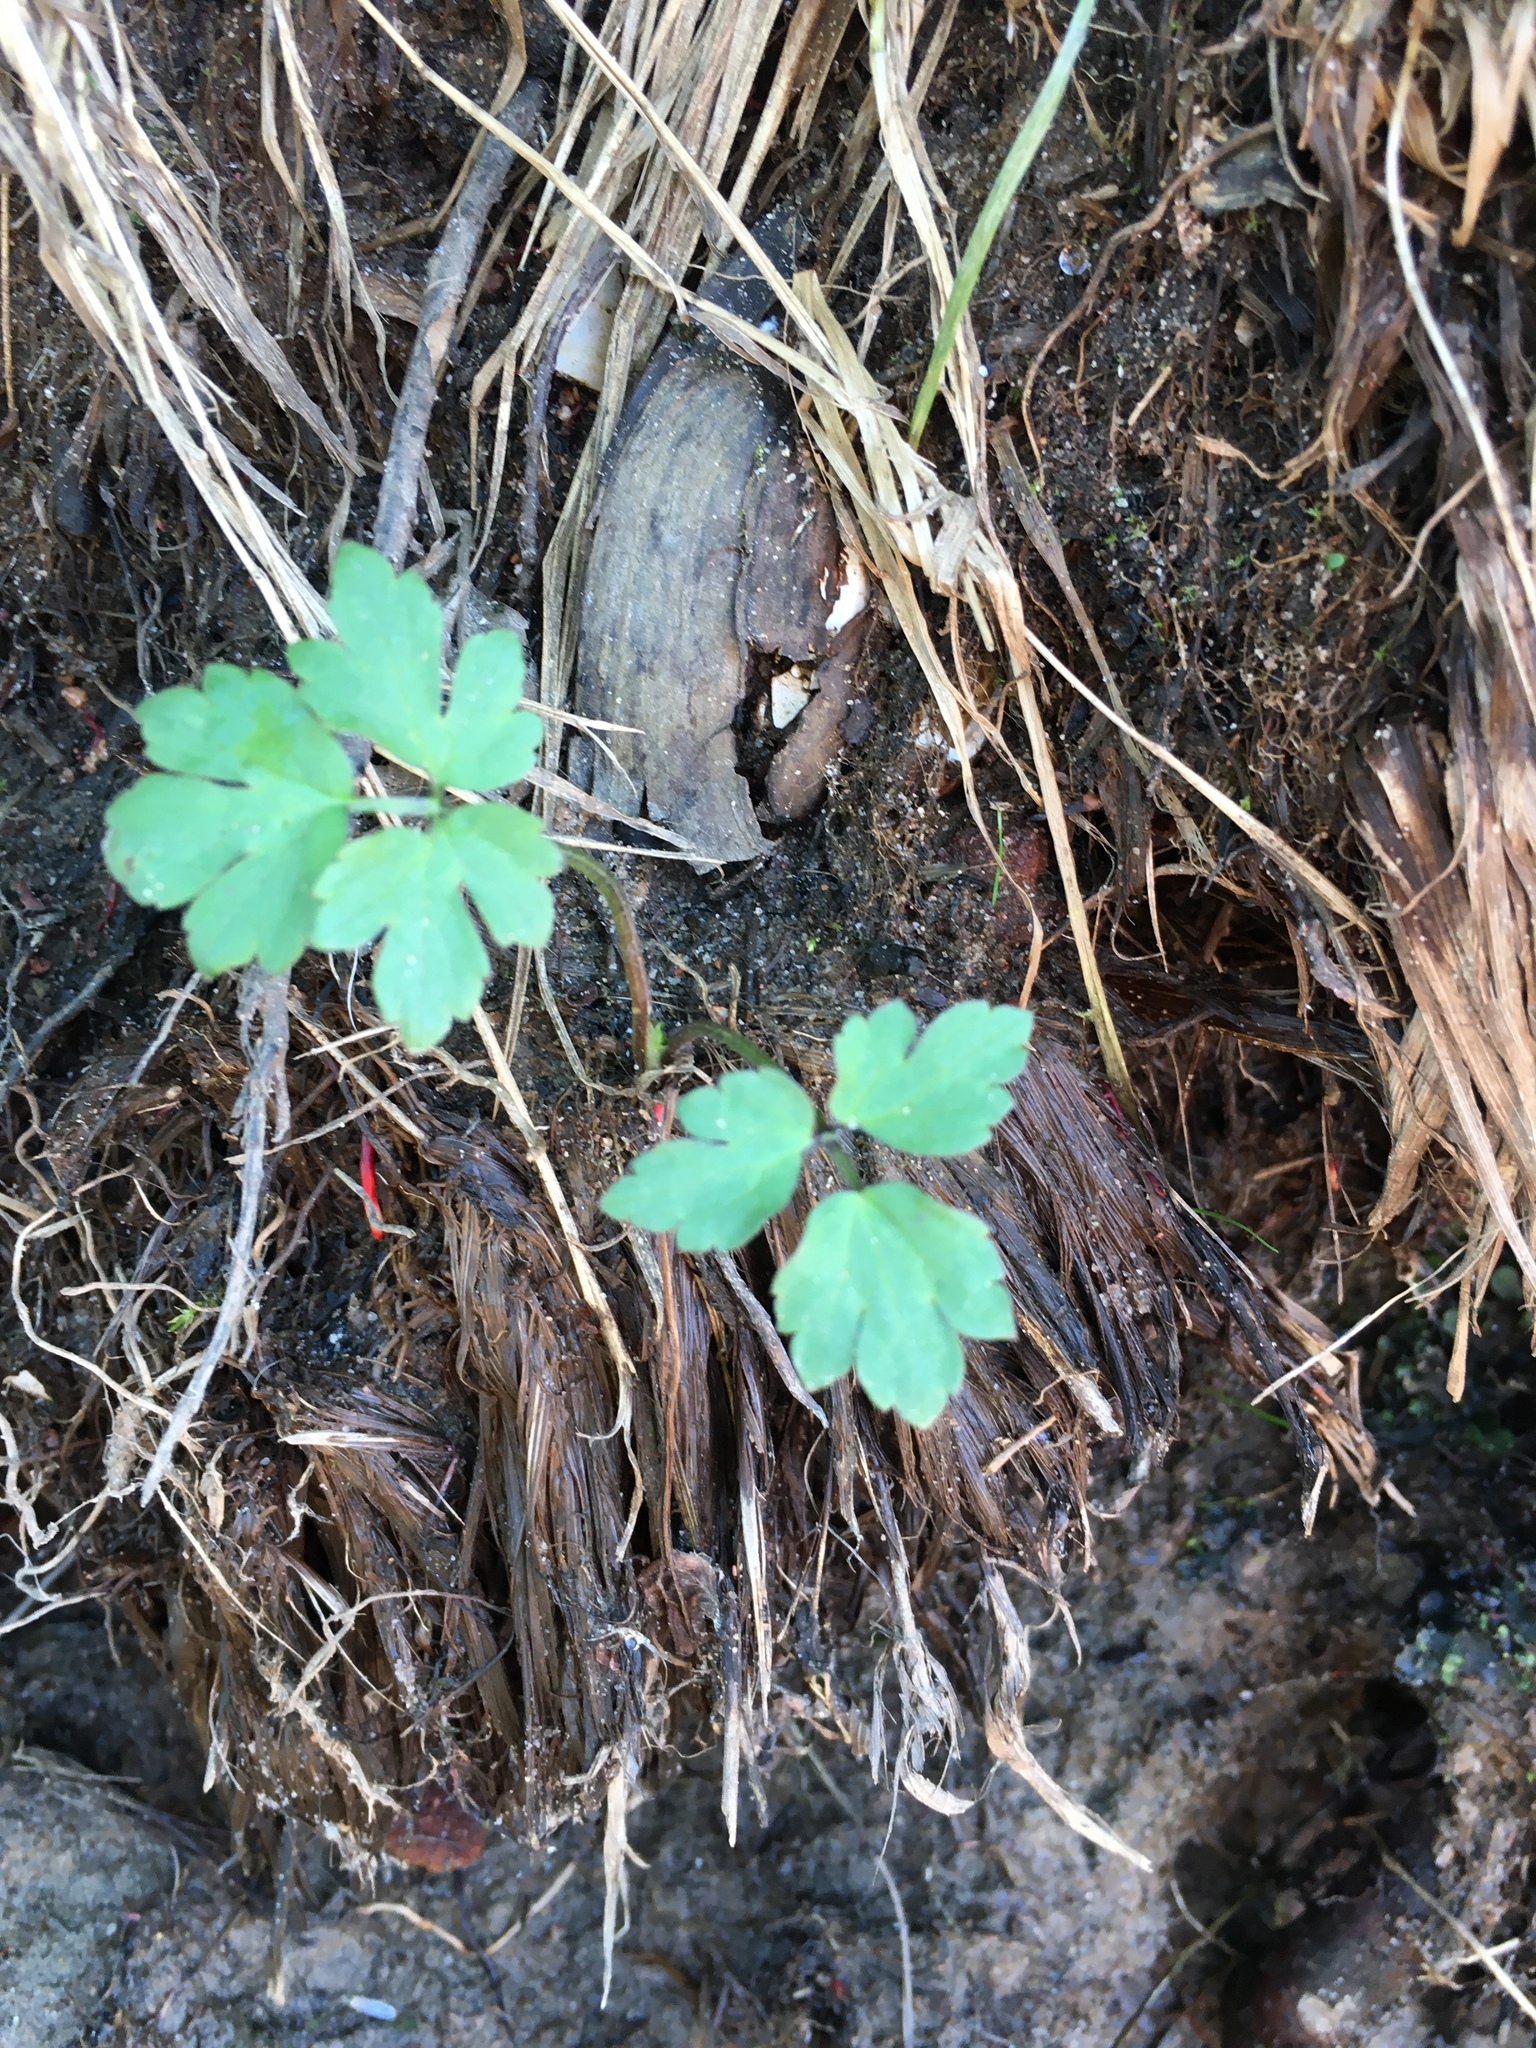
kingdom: Plantae
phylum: Tracheophyta
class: Magnoliopsida
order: Ranunculales
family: Ranunculaceae
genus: Ranunculus
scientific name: Ranunculus repens
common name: Creeping buttercup
